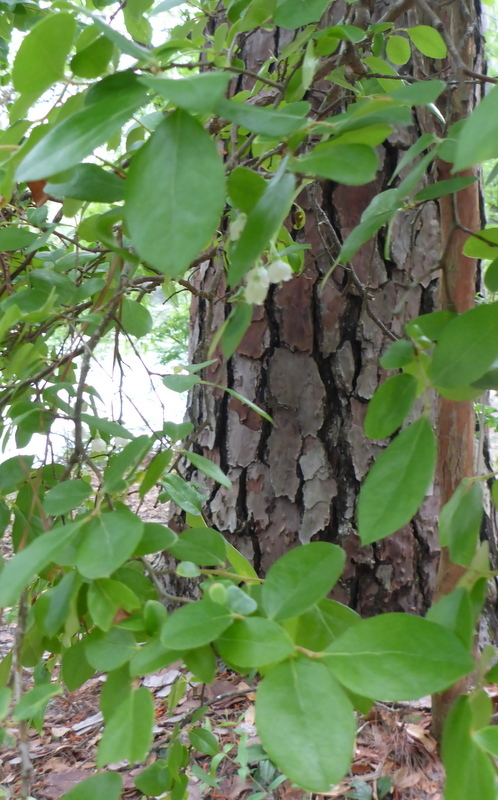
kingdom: Plantae
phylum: Tracheophyta
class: Magnoliopsida
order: Ericales
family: Ericaceae
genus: Vaccinium
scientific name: Vaccinium arboreum
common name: Farkleberry
